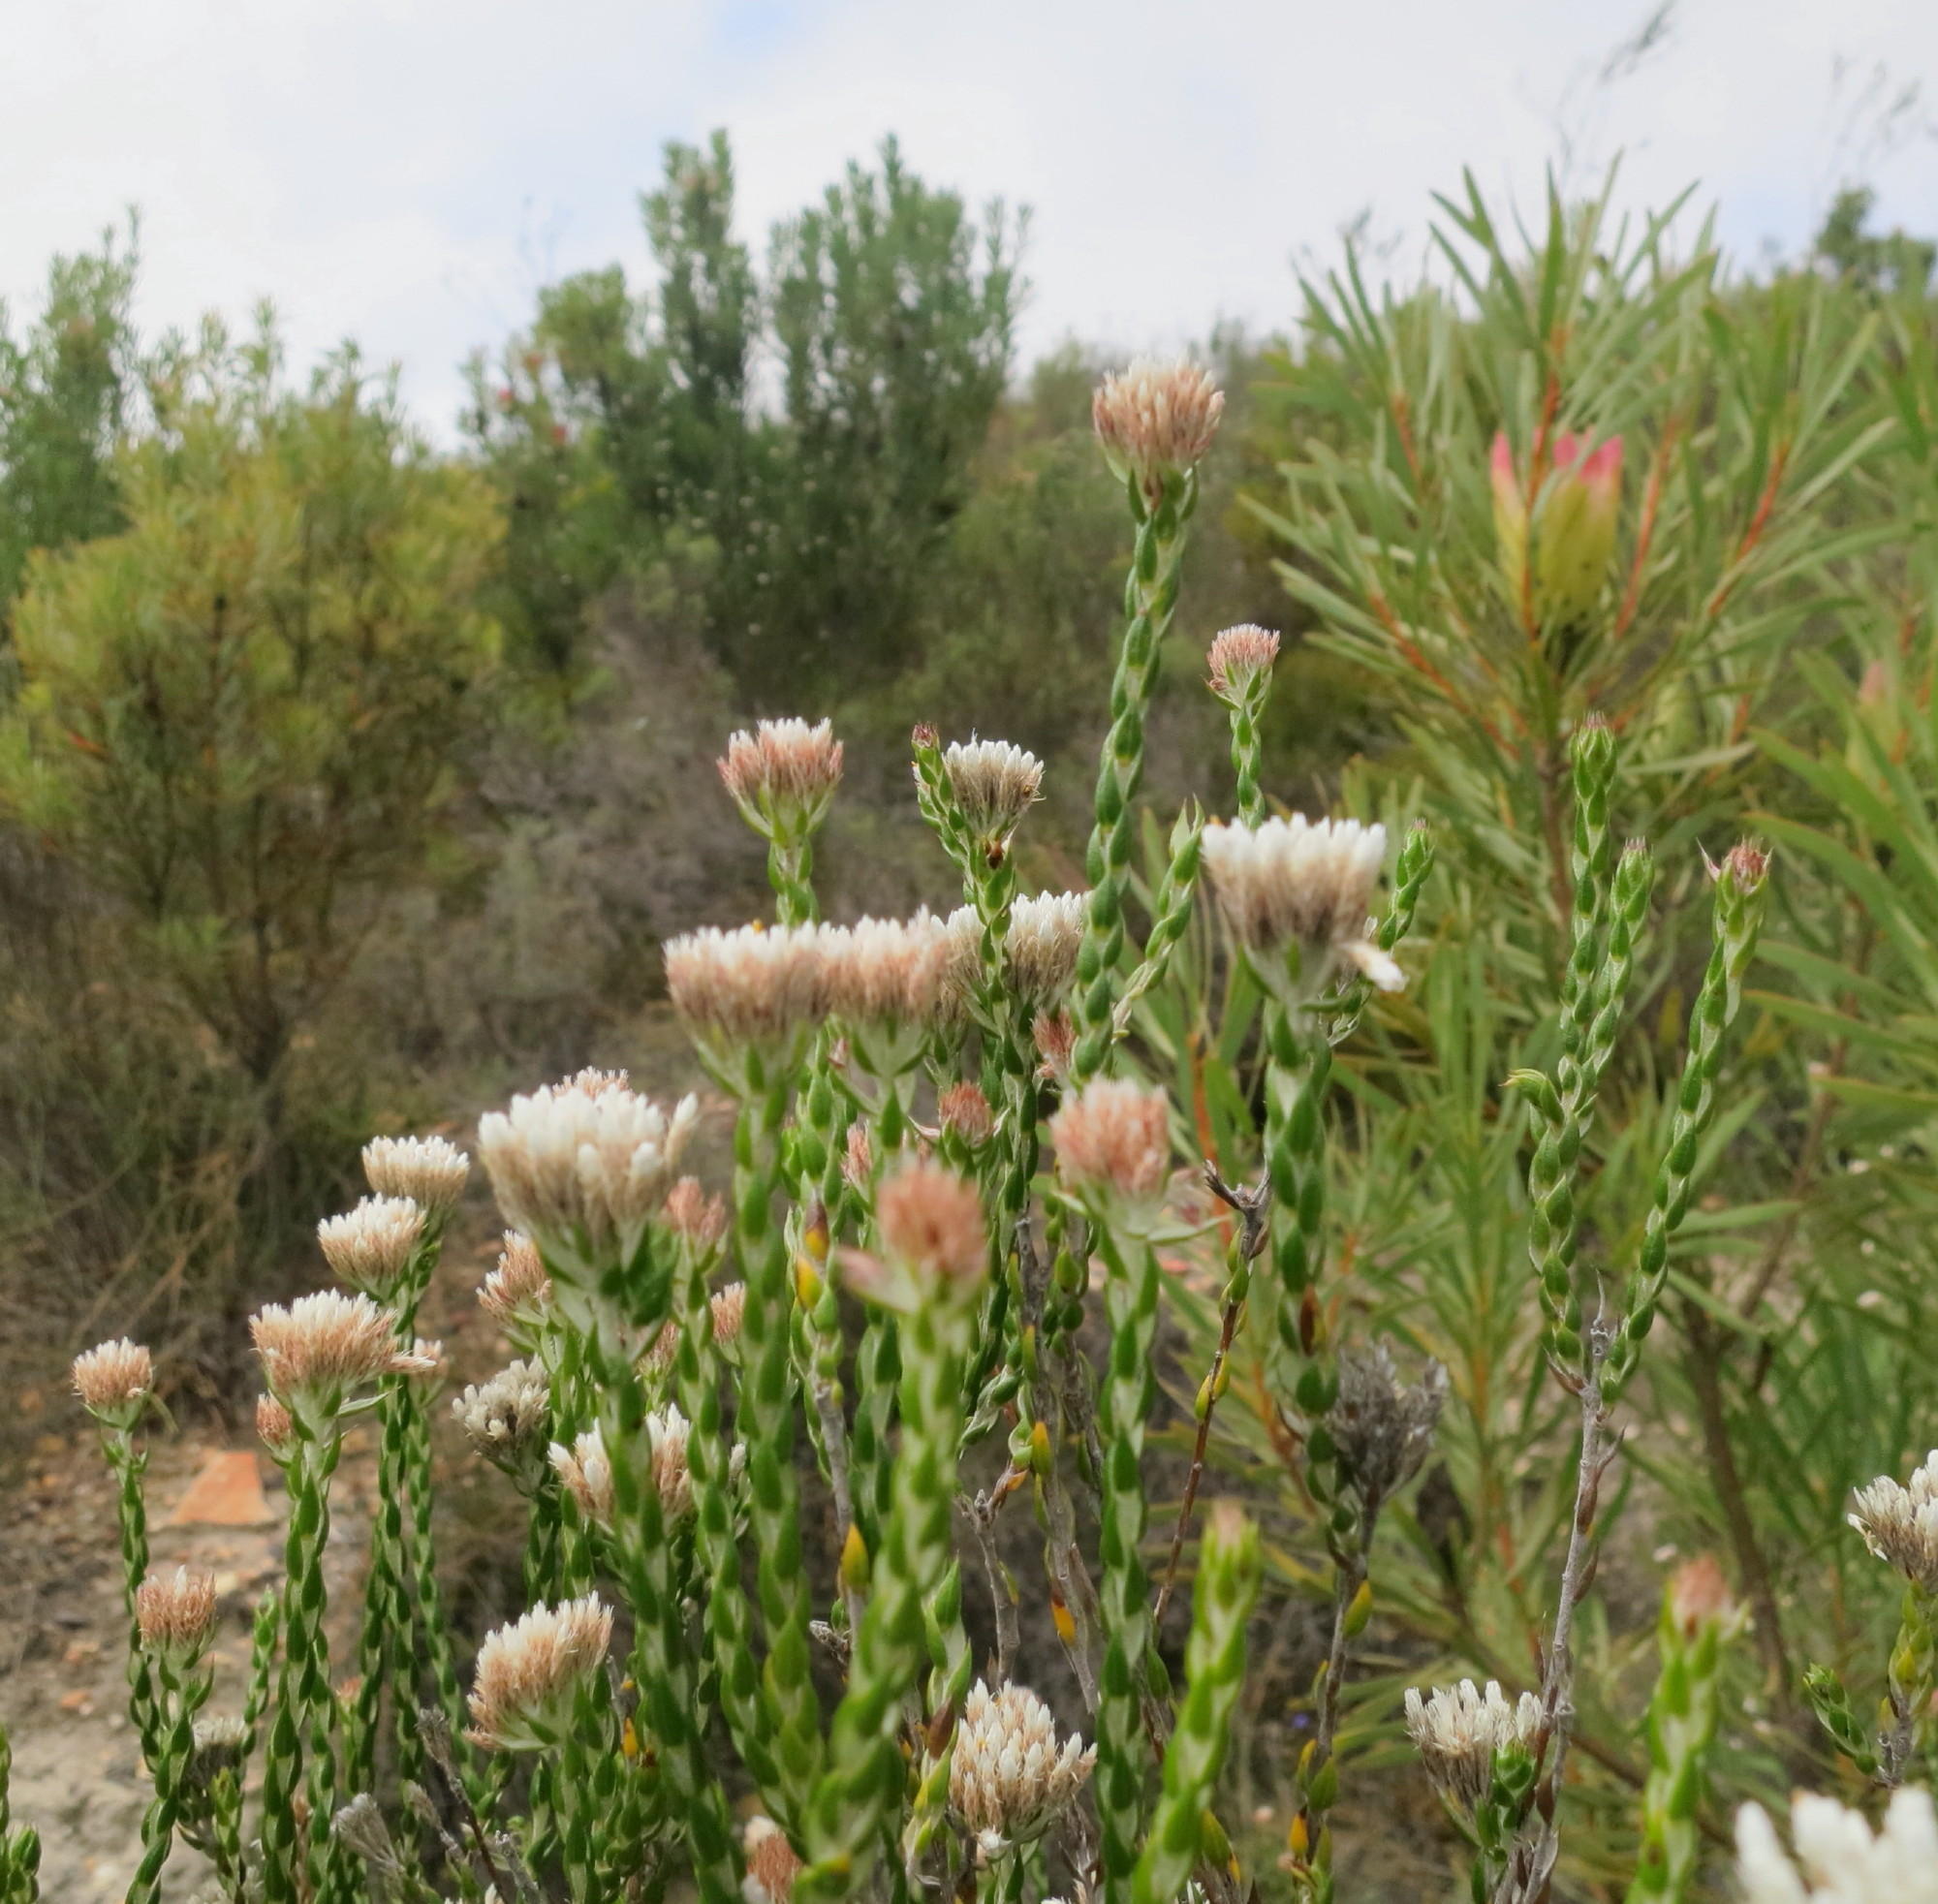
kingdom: Plantae
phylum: Tracheophyta
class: Magnoliopsida
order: Asterales
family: Asteraceae
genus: Metalasia
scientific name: Metalasia pulcherrima
